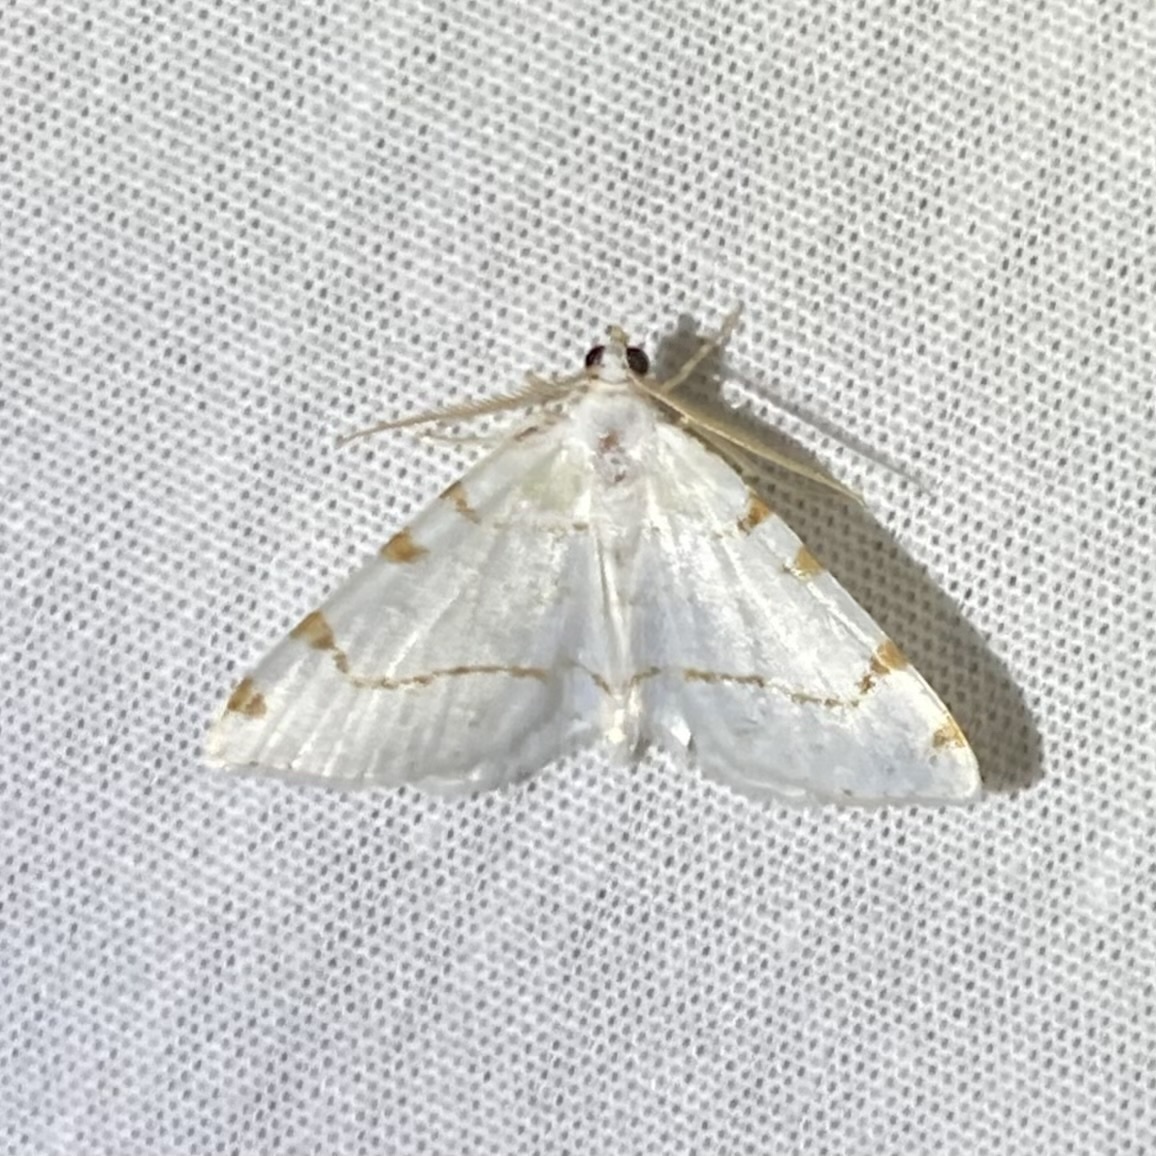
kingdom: Animalia
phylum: Arthropoda
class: Insecta
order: Lepidoptera
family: Geometridae
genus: Macaria
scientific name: Macaria pustularia
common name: Lesser maple spanworm moth
